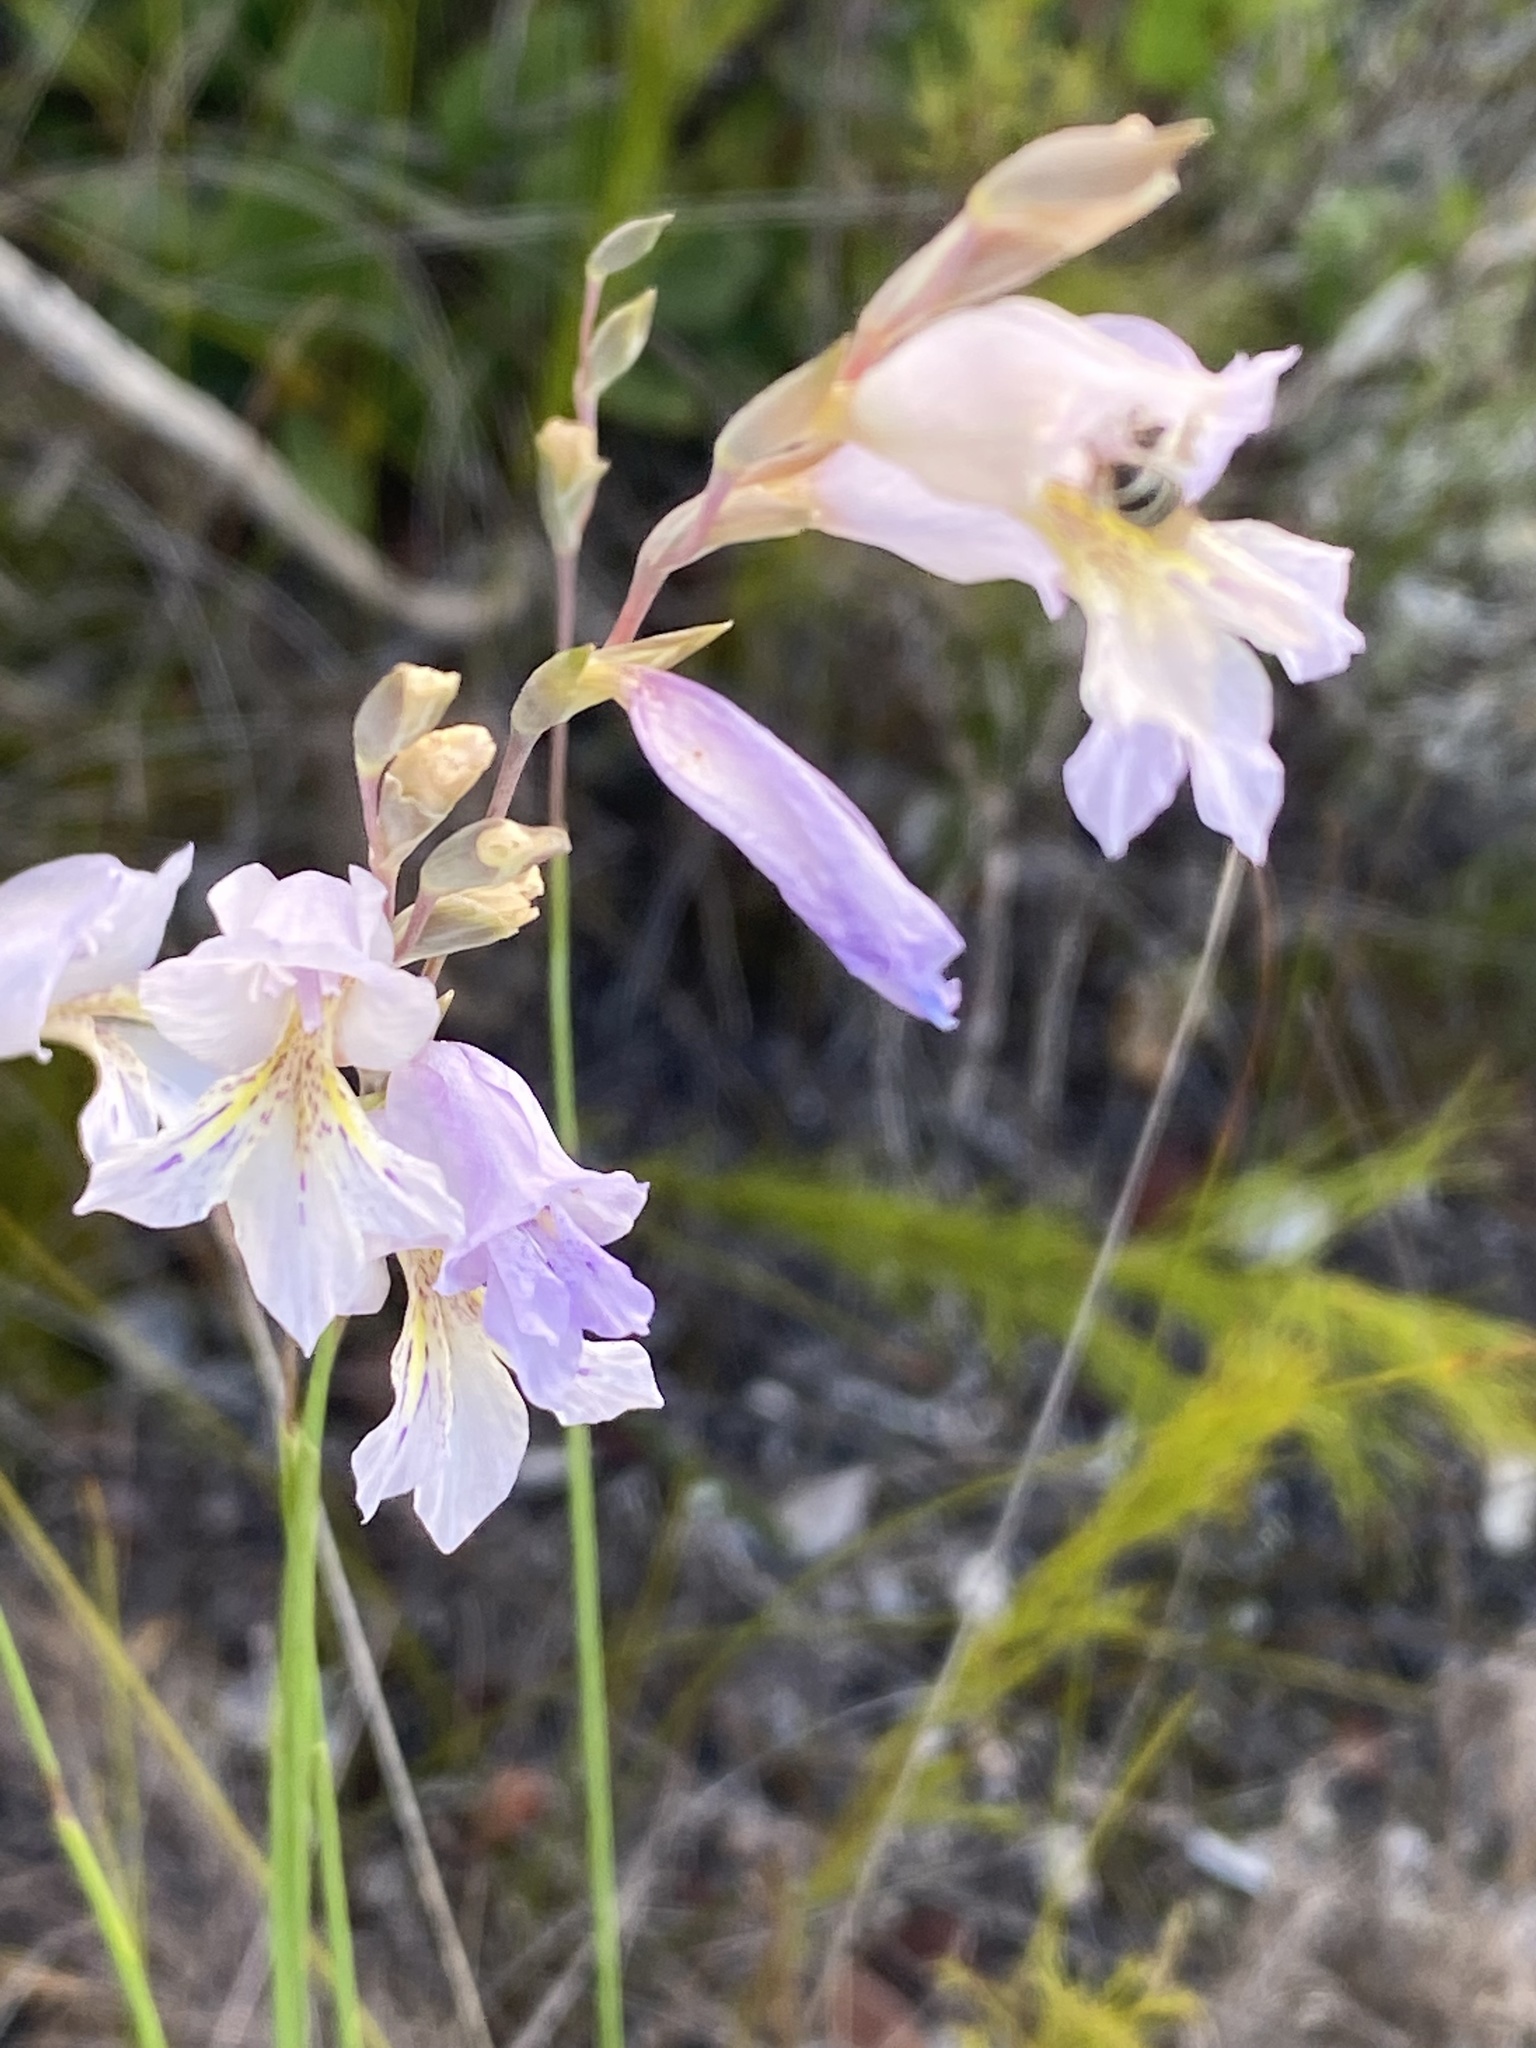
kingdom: Plantae
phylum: Tracheophyta
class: Liliopsida
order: Asparagales
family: Iridaceae
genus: Gladiolus
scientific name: Gladiolus brevifolius
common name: March pypie
